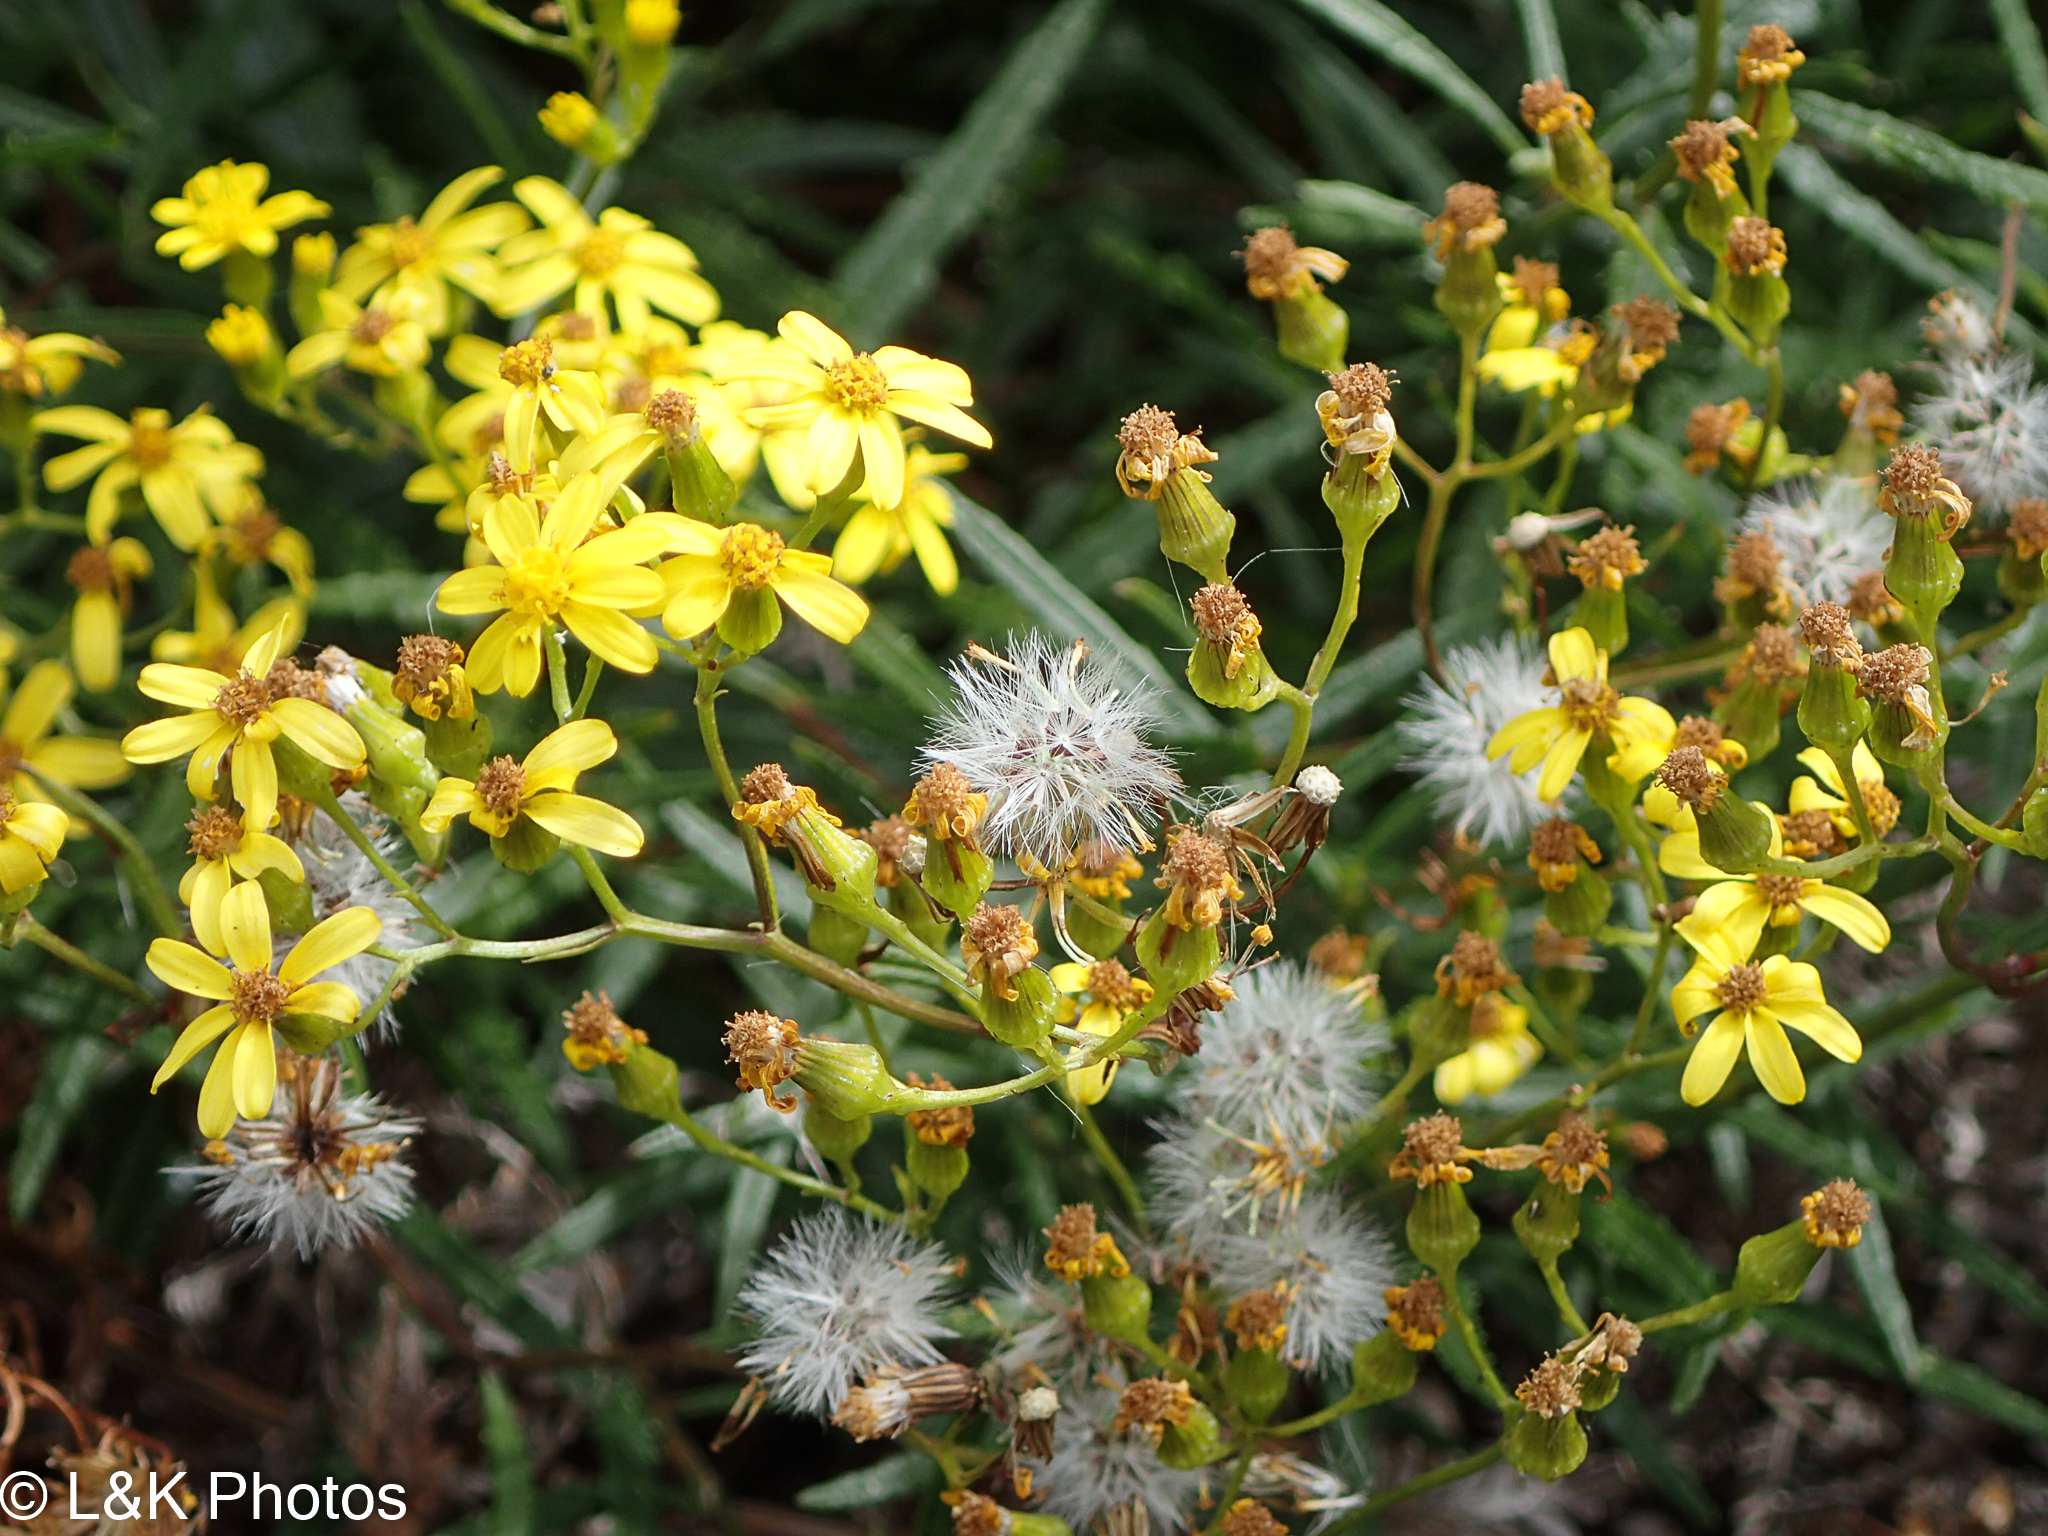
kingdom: Plantae
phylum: Tracheophyta
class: Magnoliopsida
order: Asterales
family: Asteraceae
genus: Senecio
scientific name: Senecio linearifolius
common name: Fireweed groundsel
